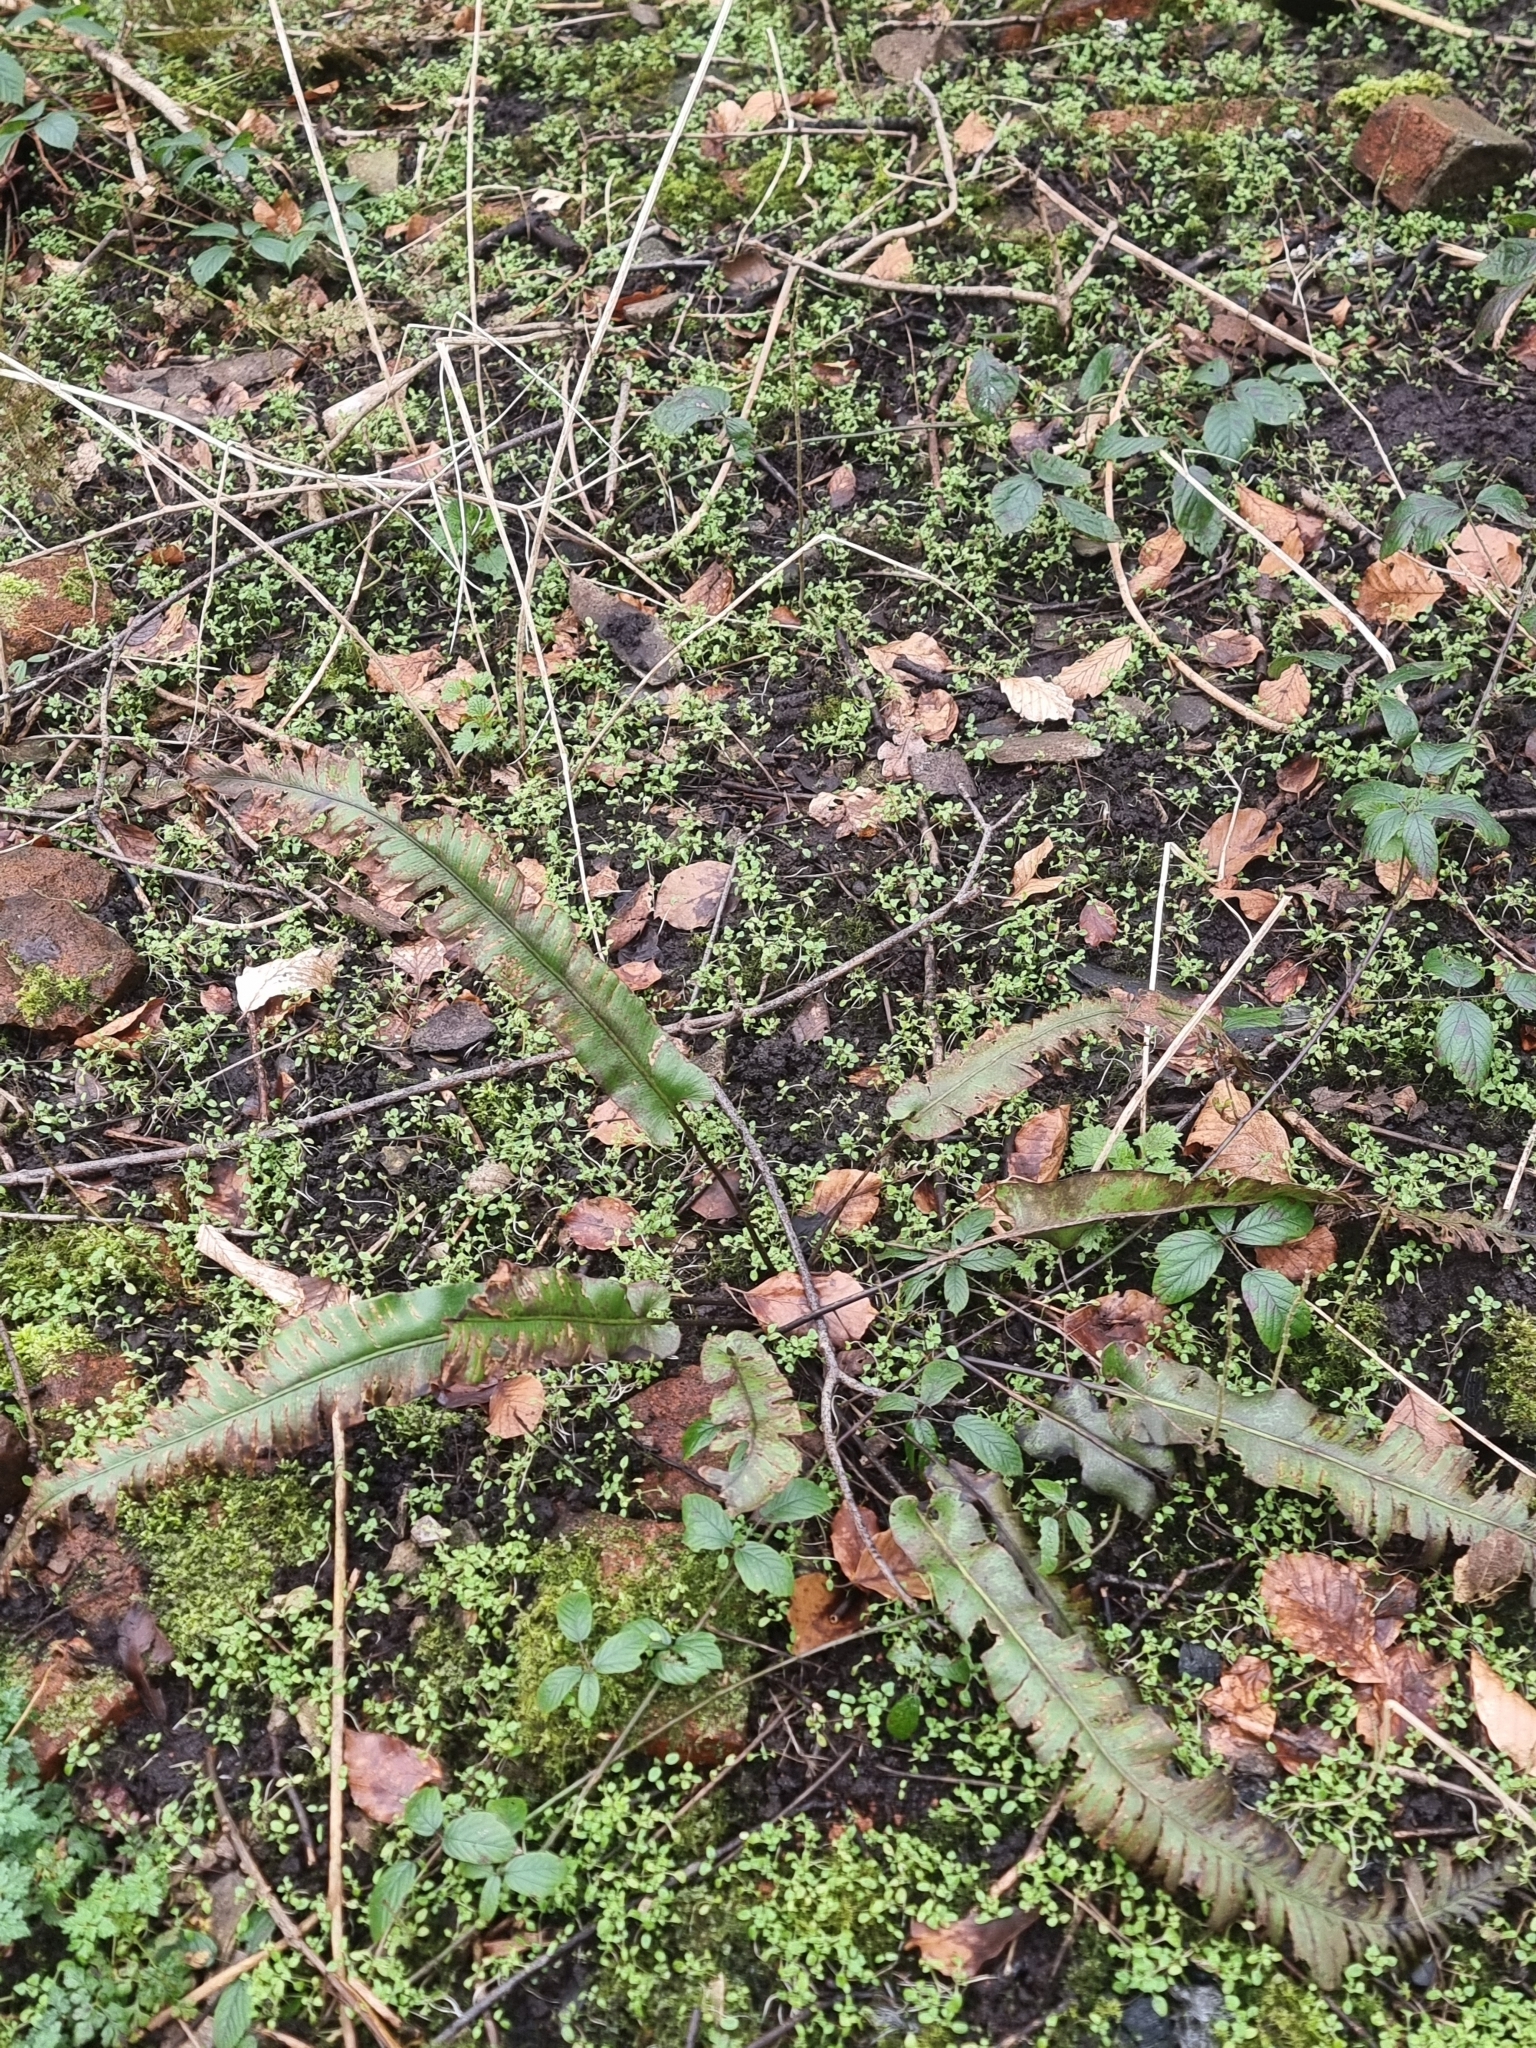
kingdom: Plantae
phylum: Tracheophyta
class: Polypodiopsida
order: Polypodiales
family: Aspleniaceae
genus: Asplenium
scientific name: Asplenium scolopendrium
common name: Hart's-tongue fern
